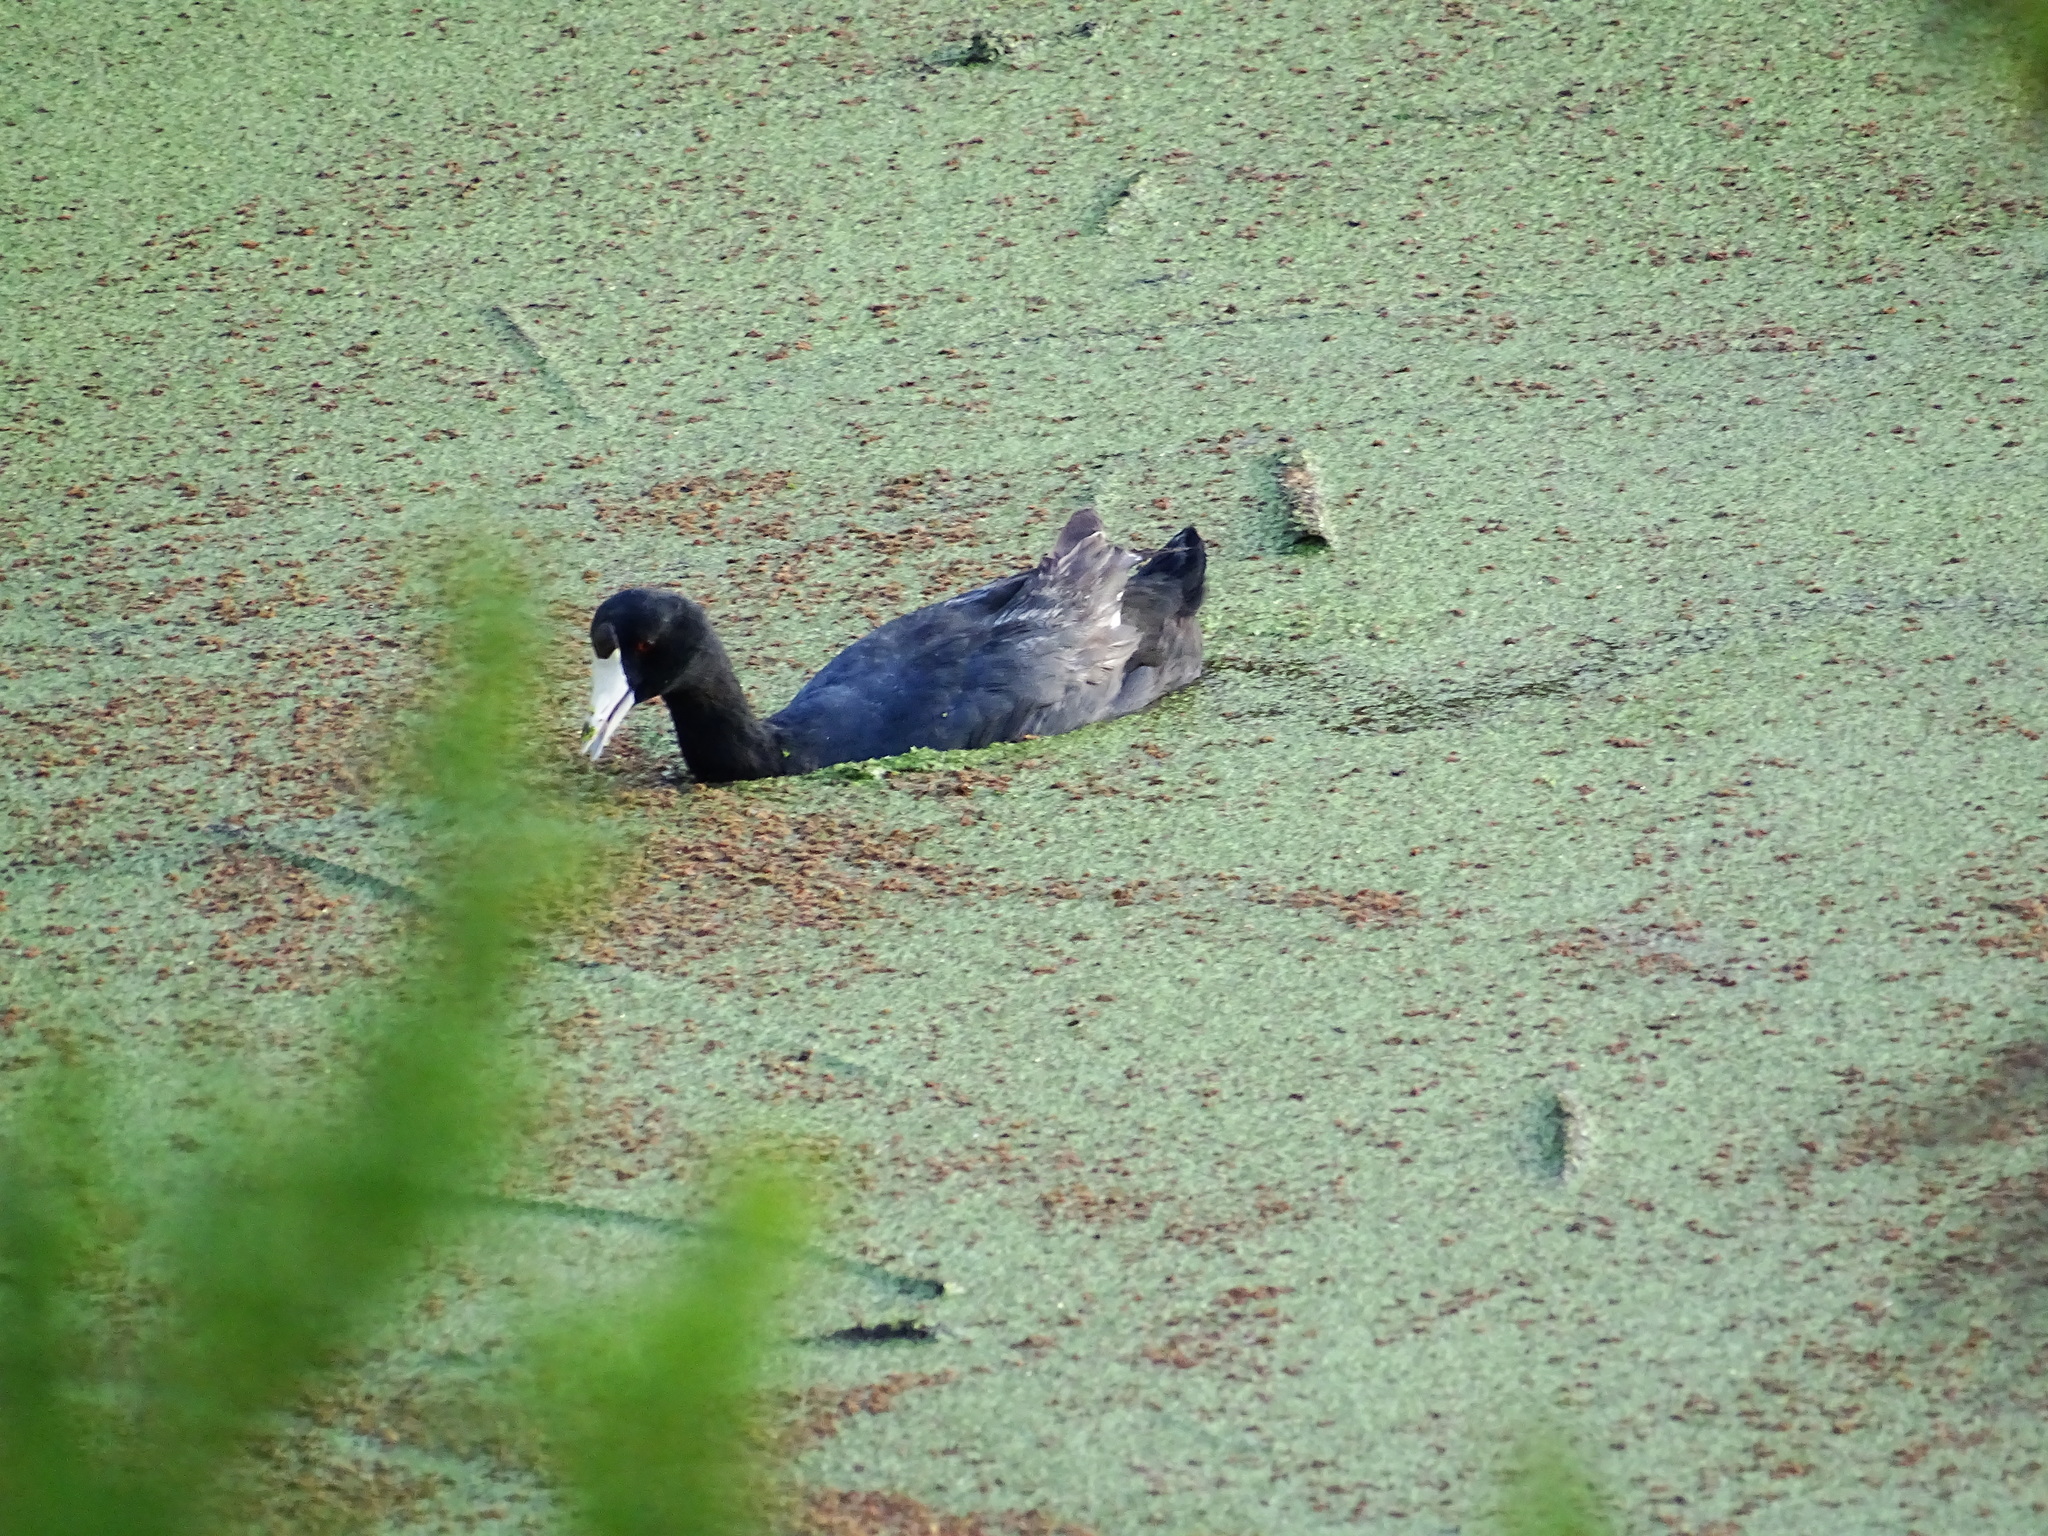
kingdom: Animalia
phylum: Chordata
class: Aves
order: Gruiformes
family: Rallidae
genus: Fulica
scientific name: Fulica americana
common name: American coot
